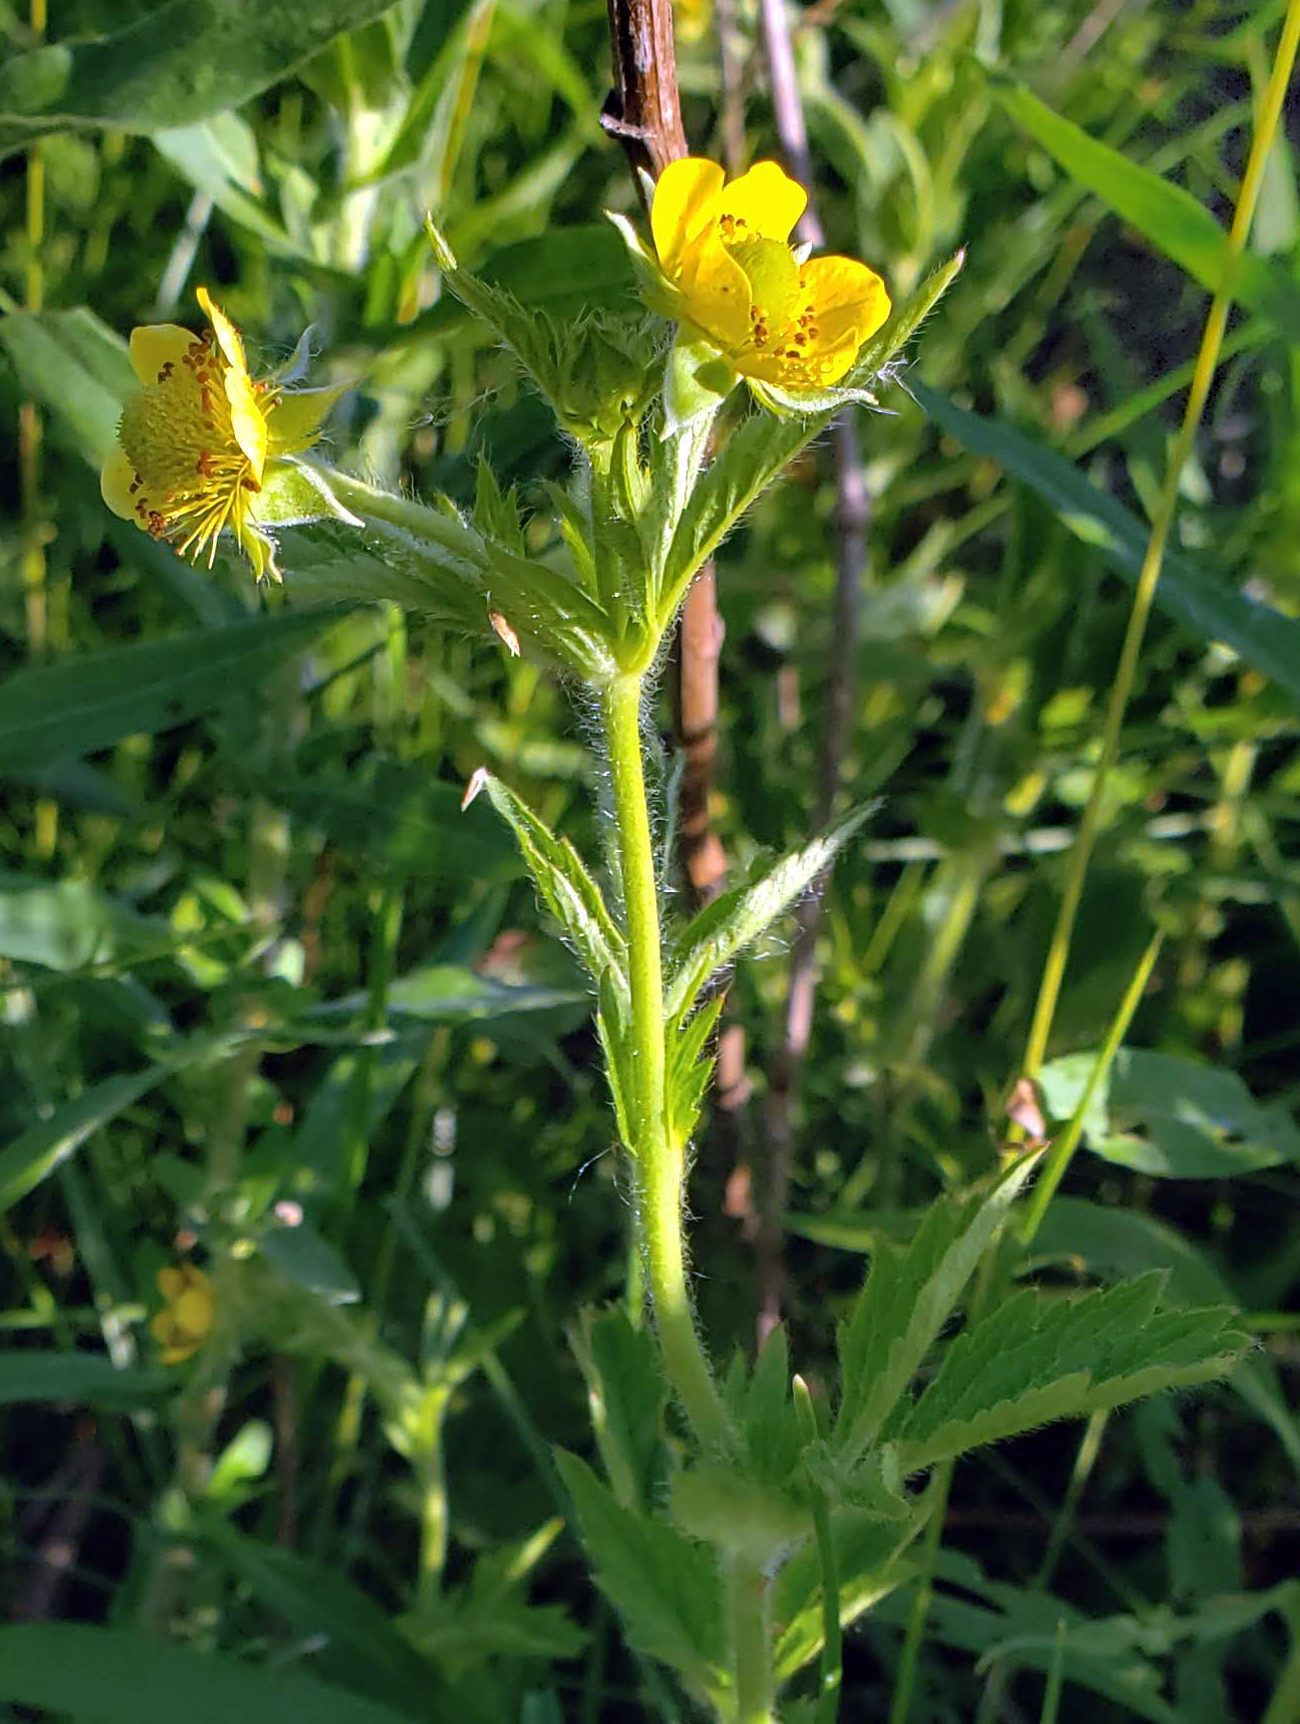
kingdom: Plantae
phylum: Tracheophyta
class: Magnoliopsida
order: Rosales
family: Rosaceae
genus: Geum
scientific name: Geum aleppicum
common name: Yellow avens
